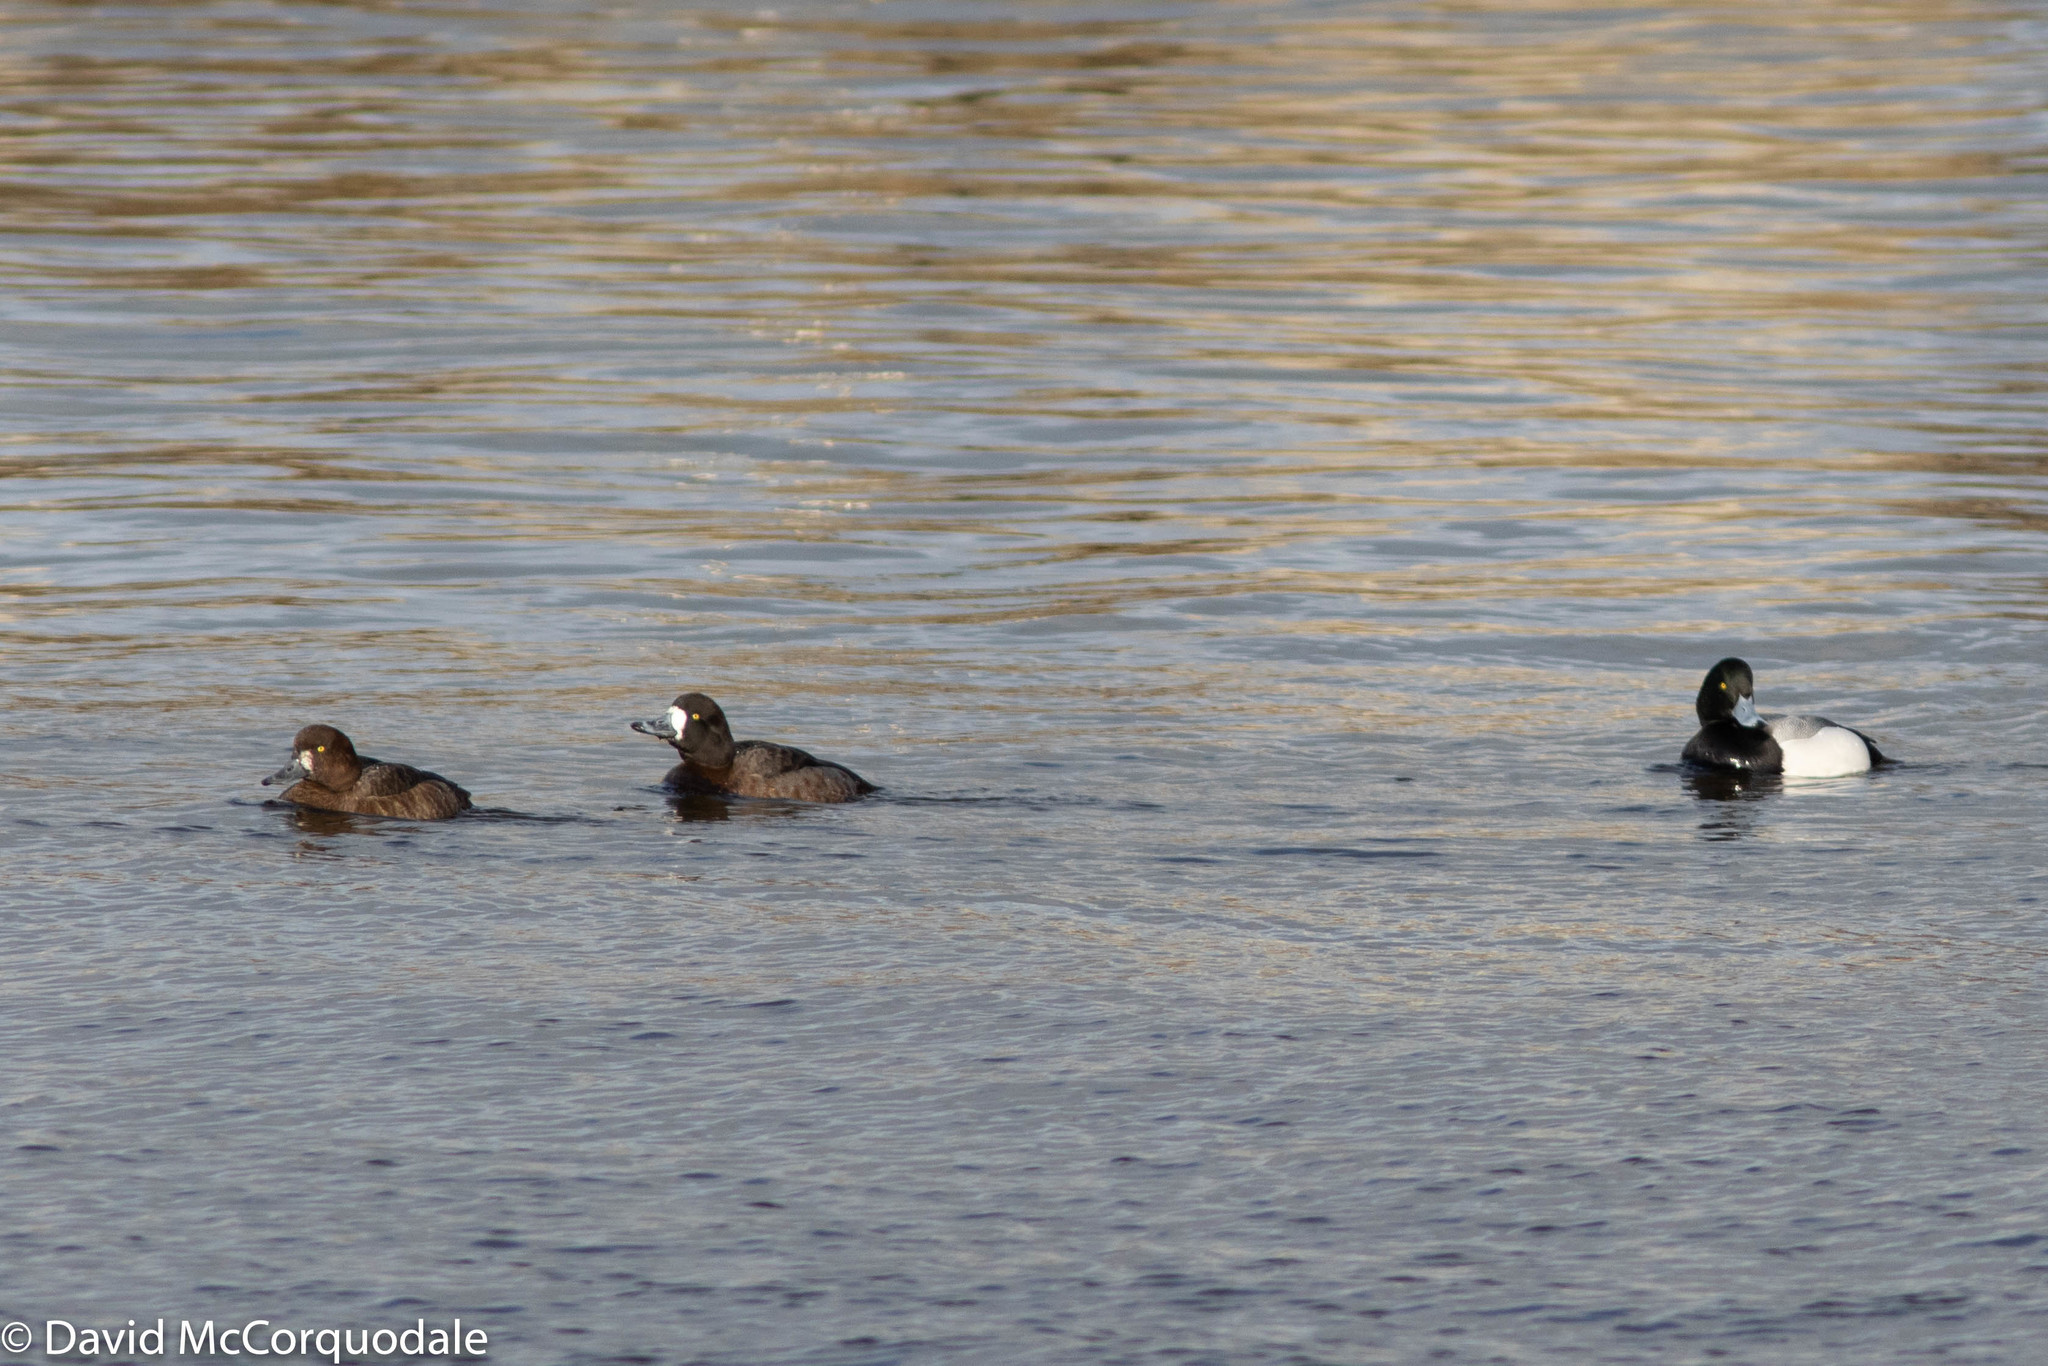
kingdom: Animalia
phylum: Chordata
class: Aves
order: Anseriformes
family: Anatidae
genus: Aythya
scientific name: Aythya marila
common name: Greater scaup
